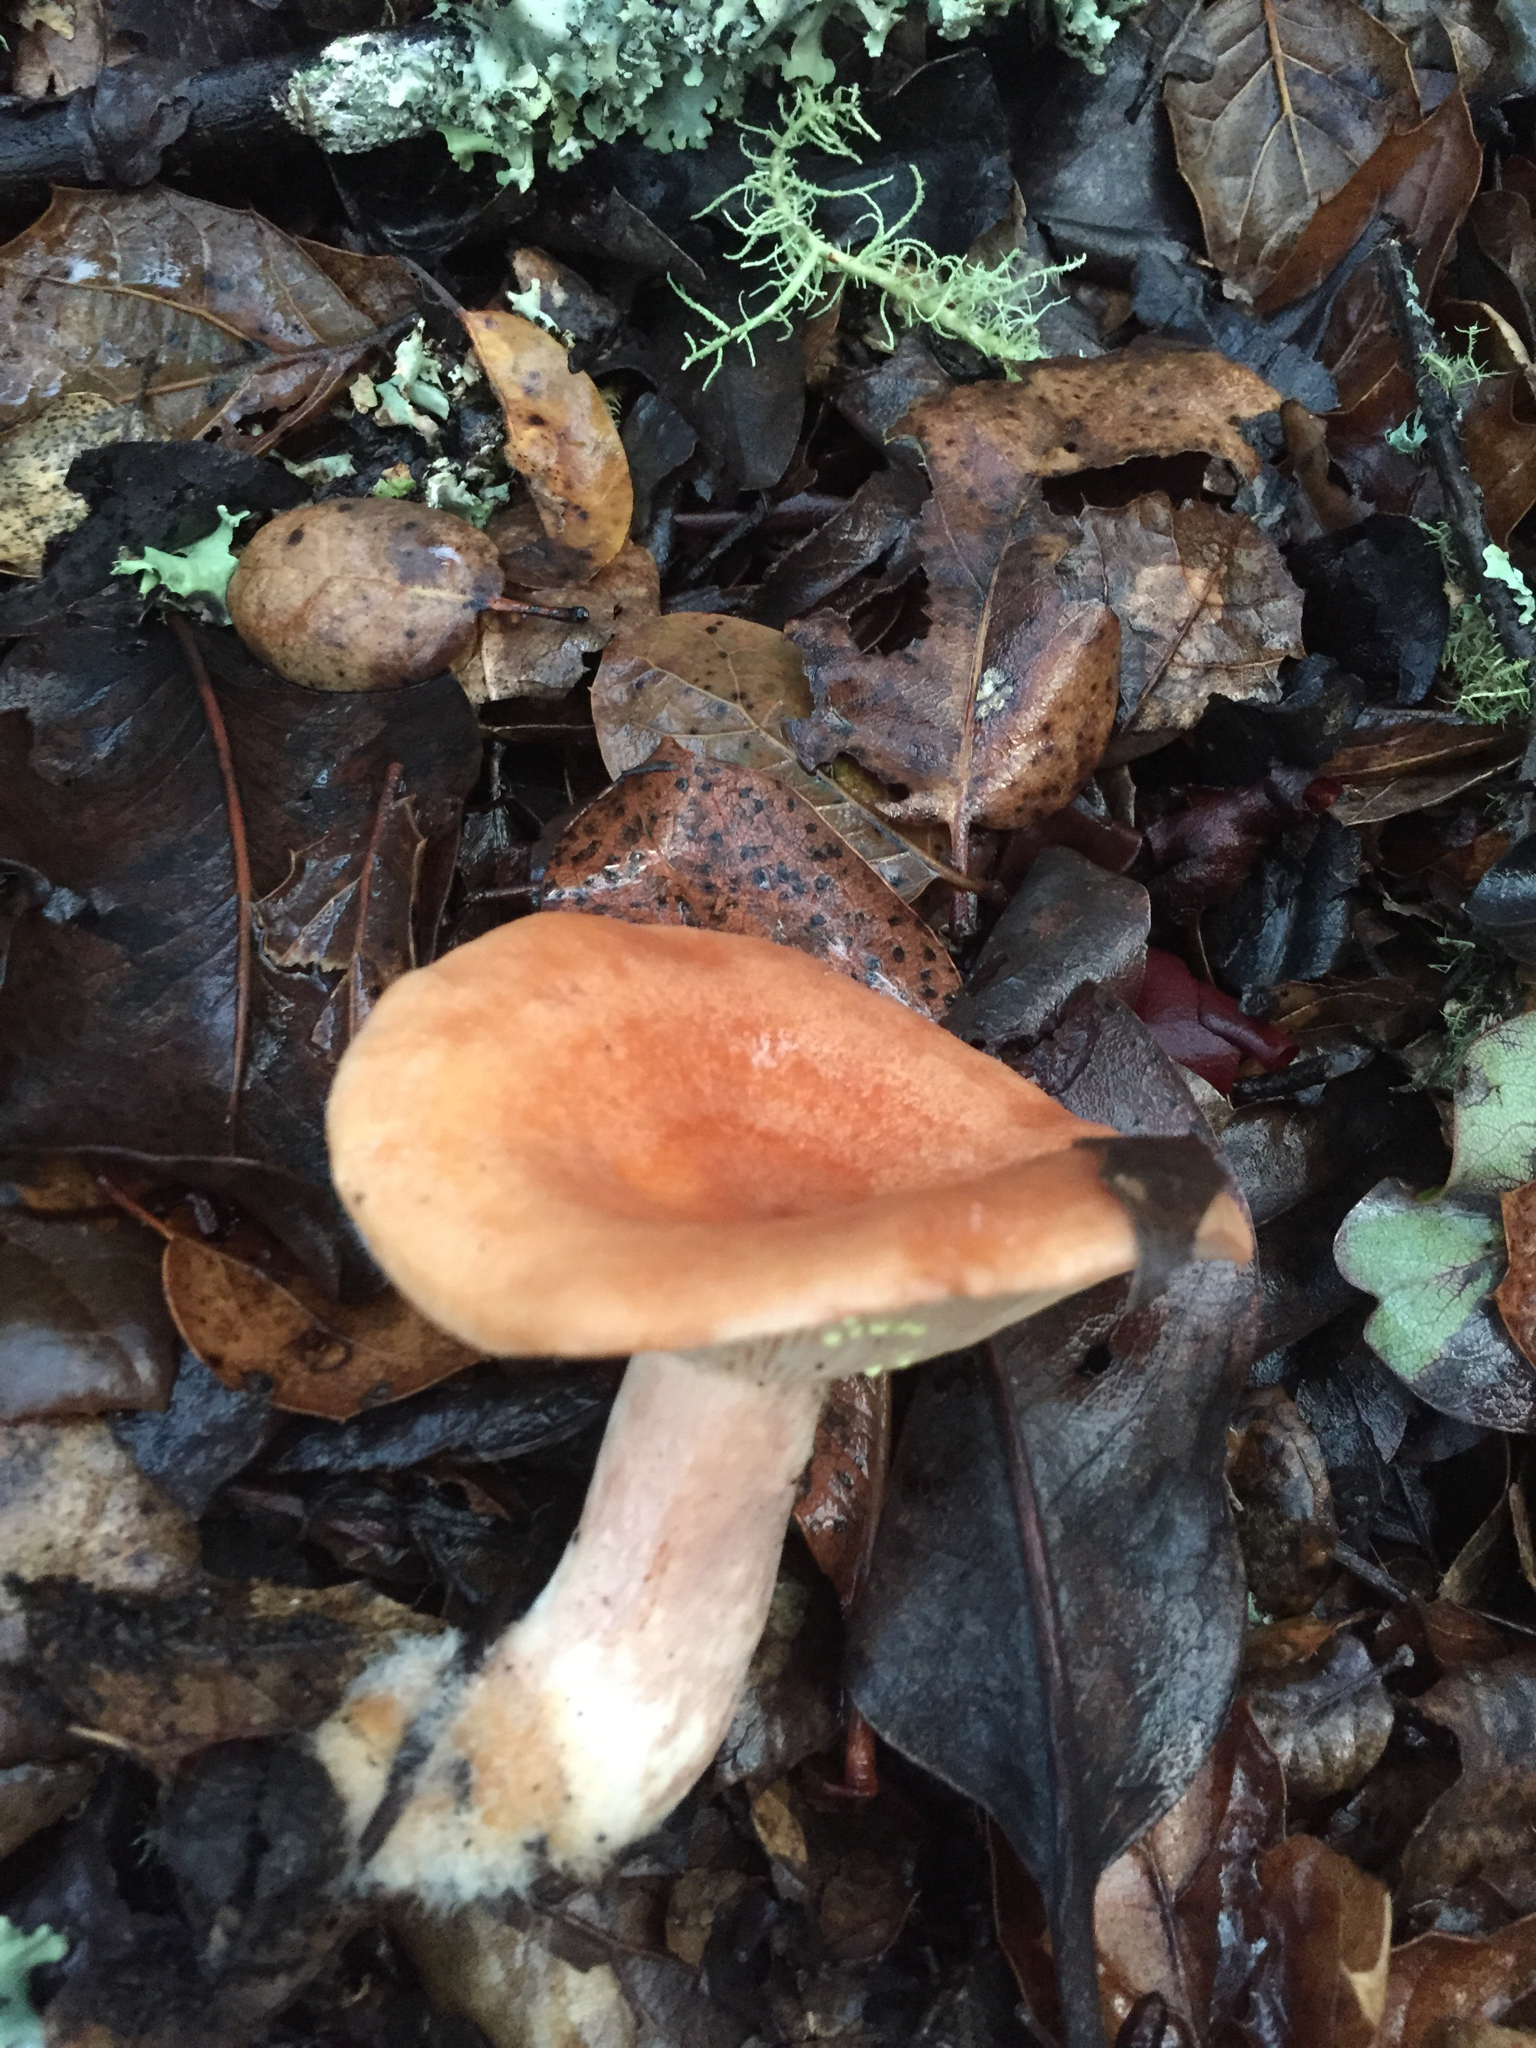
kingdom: Fungi
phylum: Basidiomycota
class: Agaricomycetes
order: Russulales
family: Russulaceae
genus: Lactarius
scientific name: Lactarius xanthogalactus
